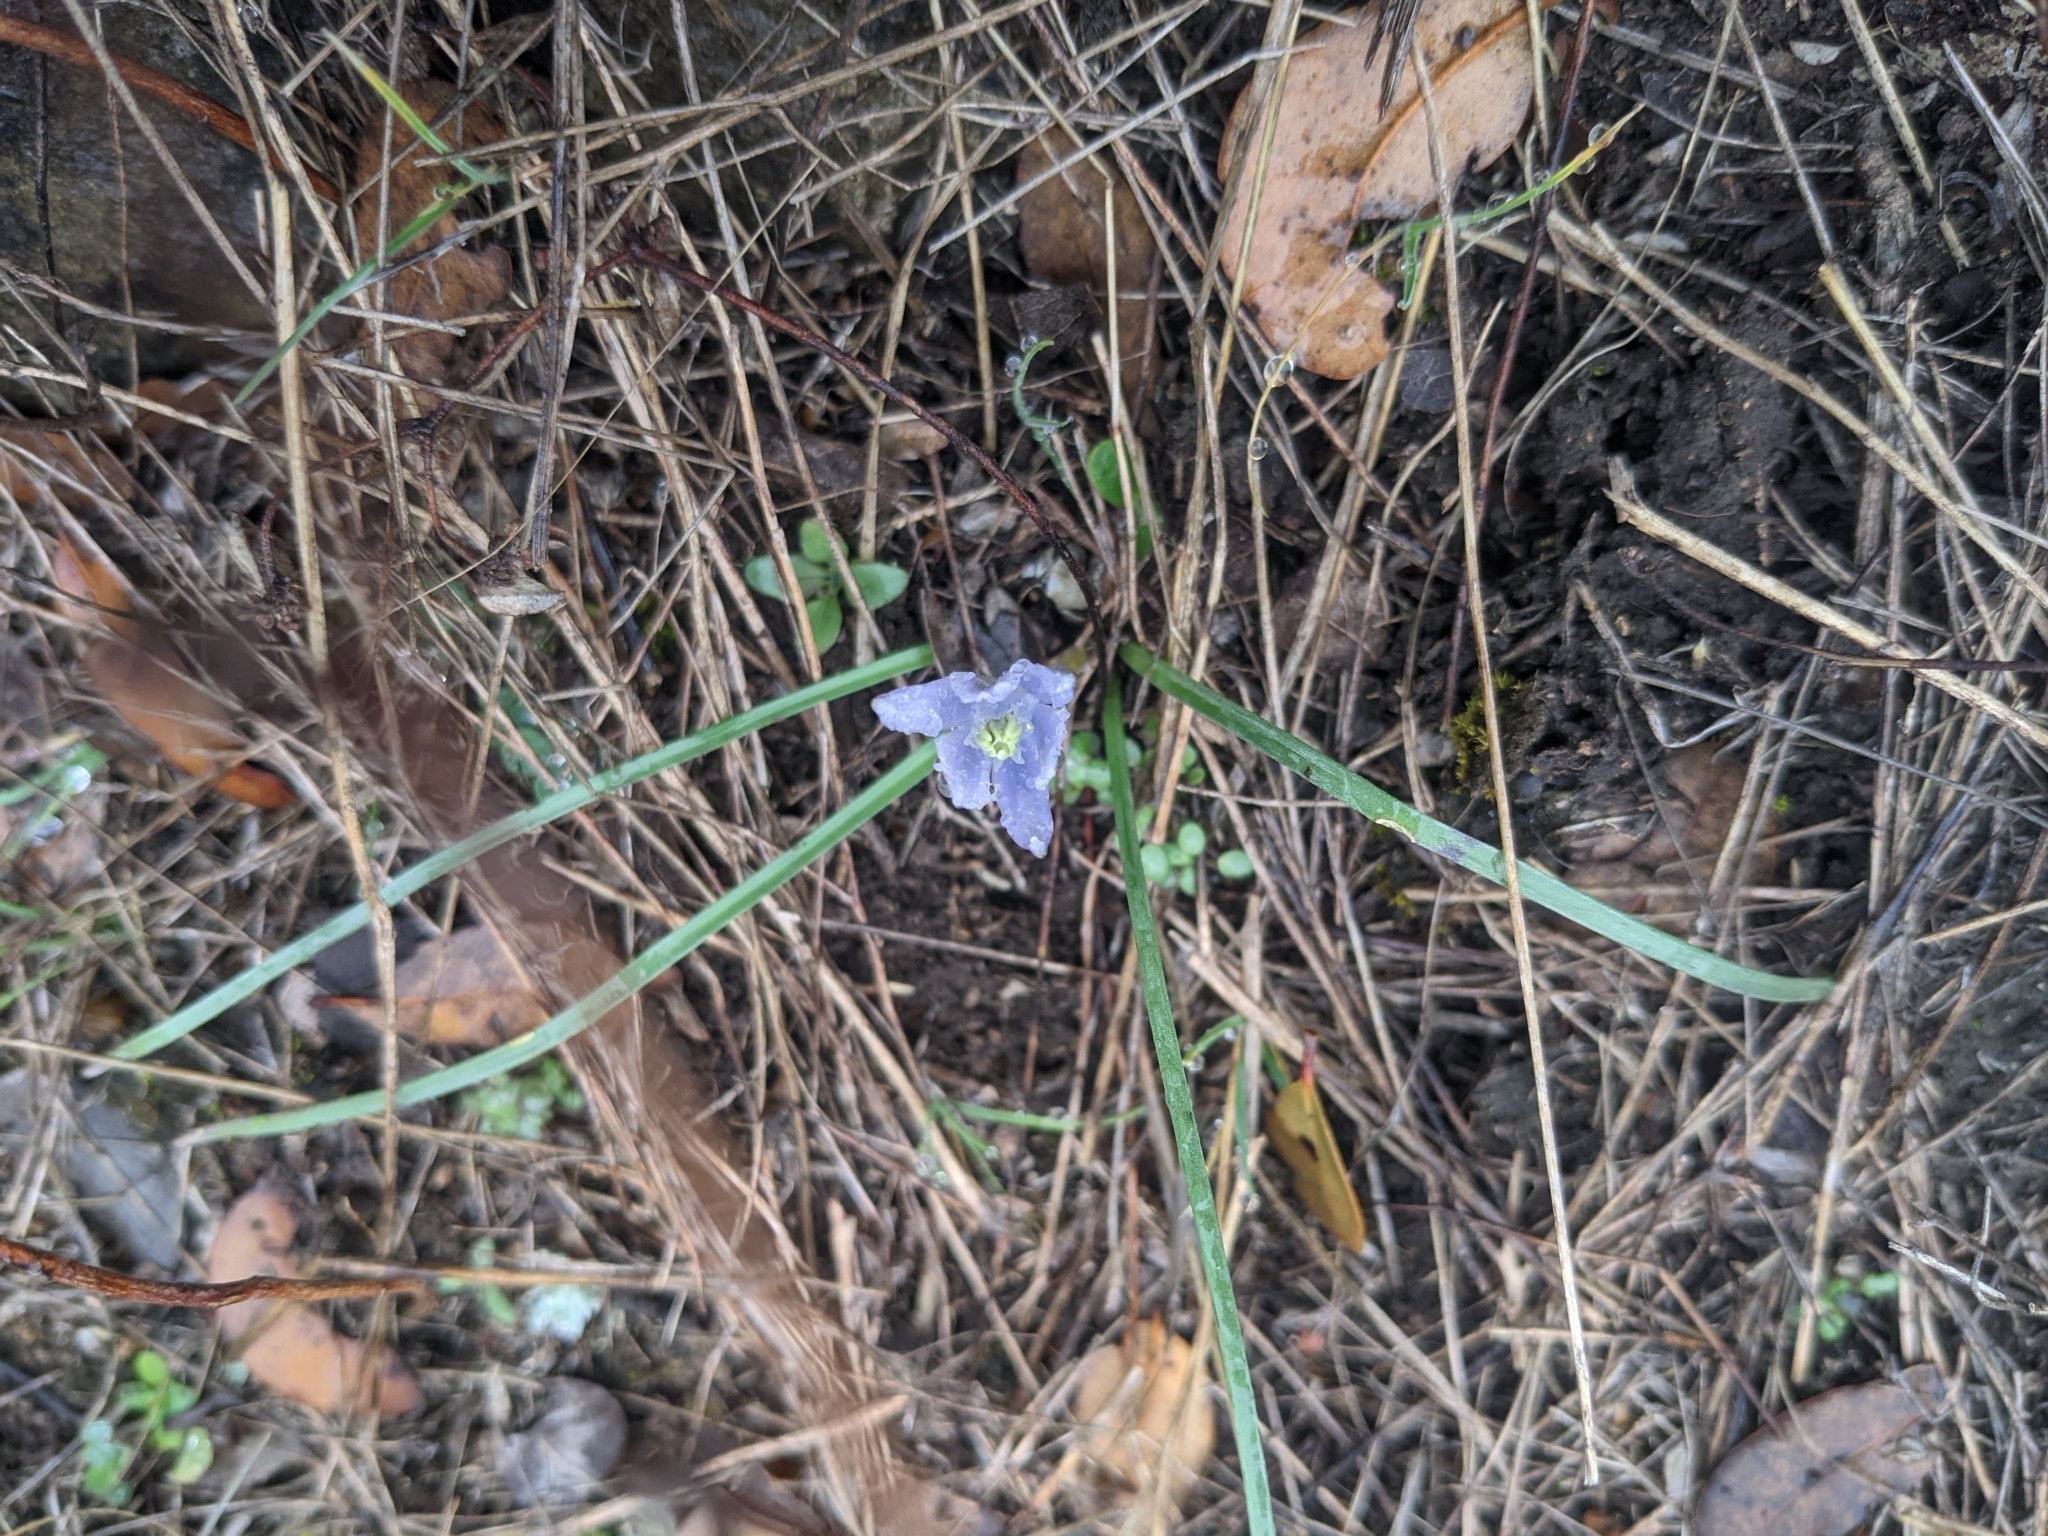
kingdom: Plantae
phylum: Tracheophyta
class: Liliopsida
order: Asparagales
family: Asparagaceae
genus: Androstephium
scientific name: Androstephium coeruleum
